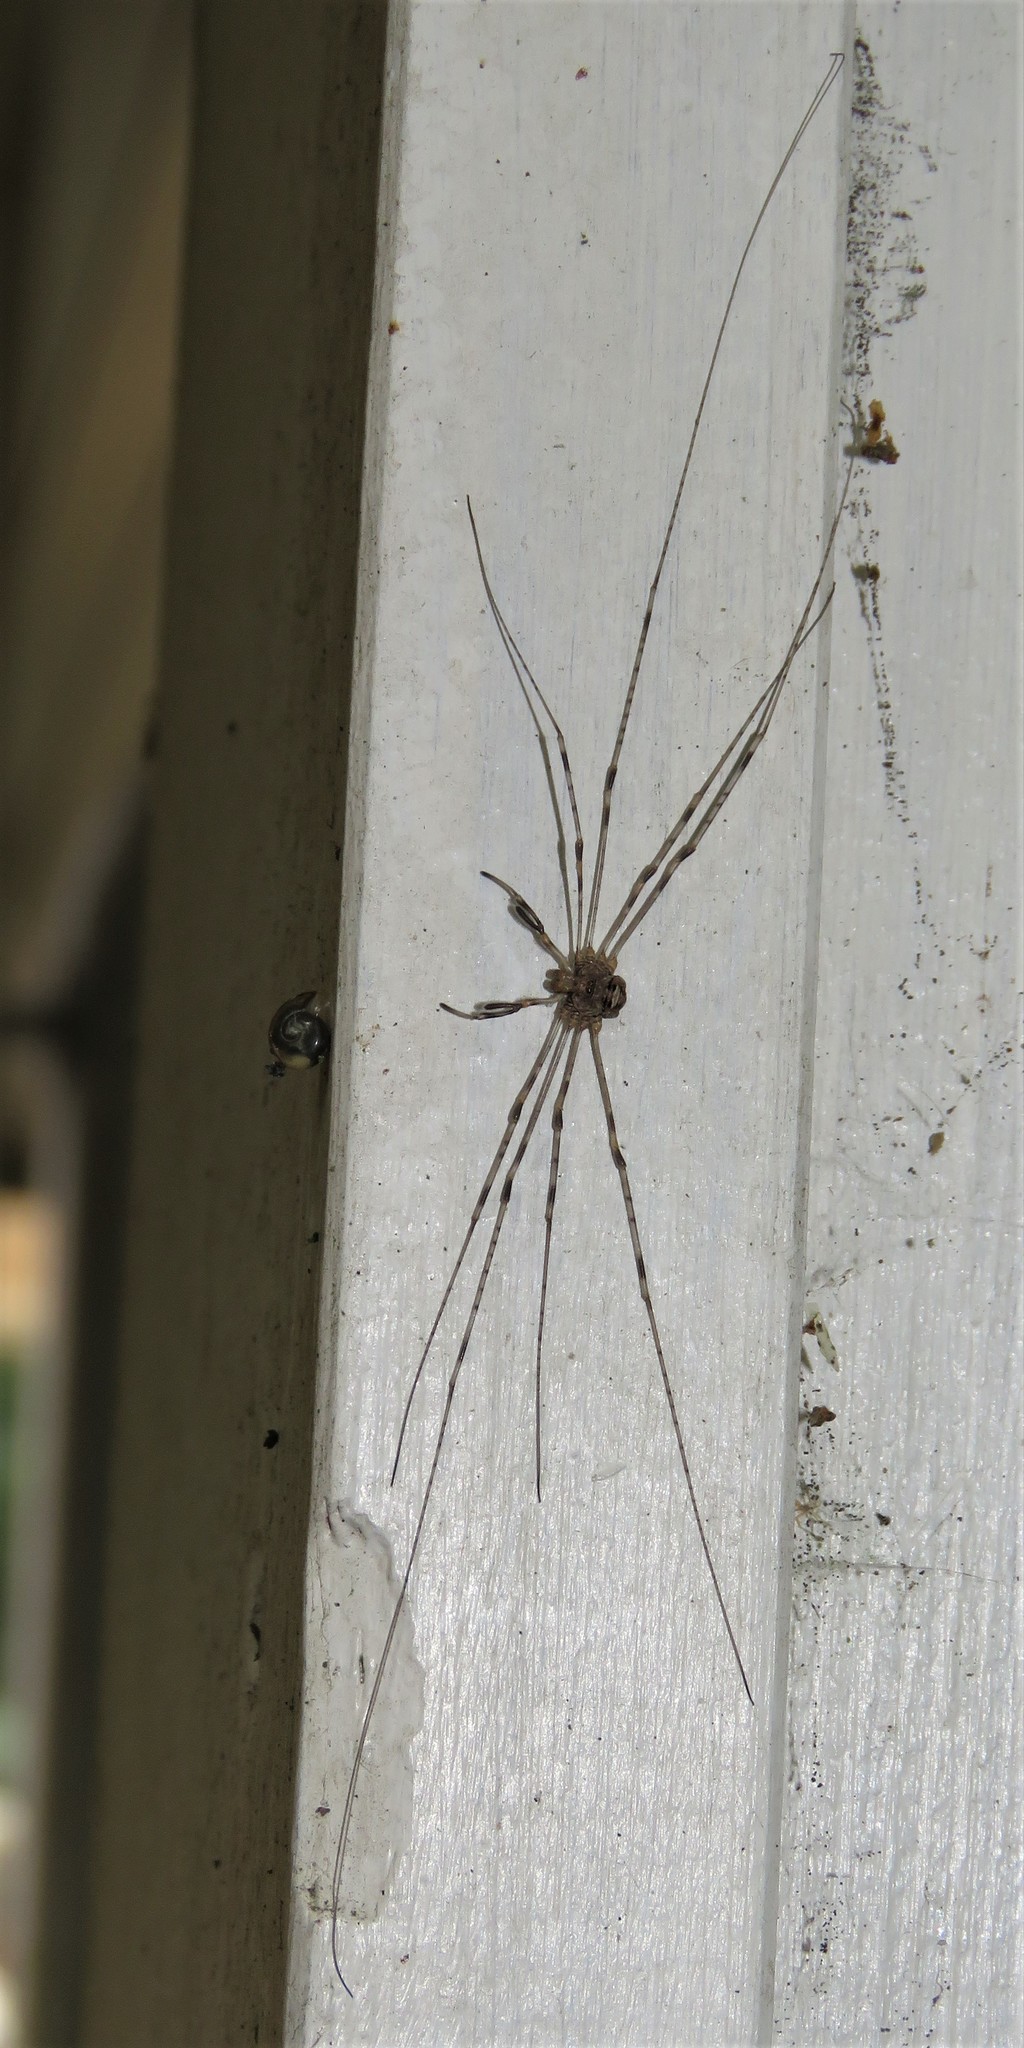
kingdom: Animalia
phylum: Arthropoda
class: Arachnida
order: Opiliones
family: Phalangiidae
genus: Dicranopalpus
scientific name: Dicranopalpus ramosus
